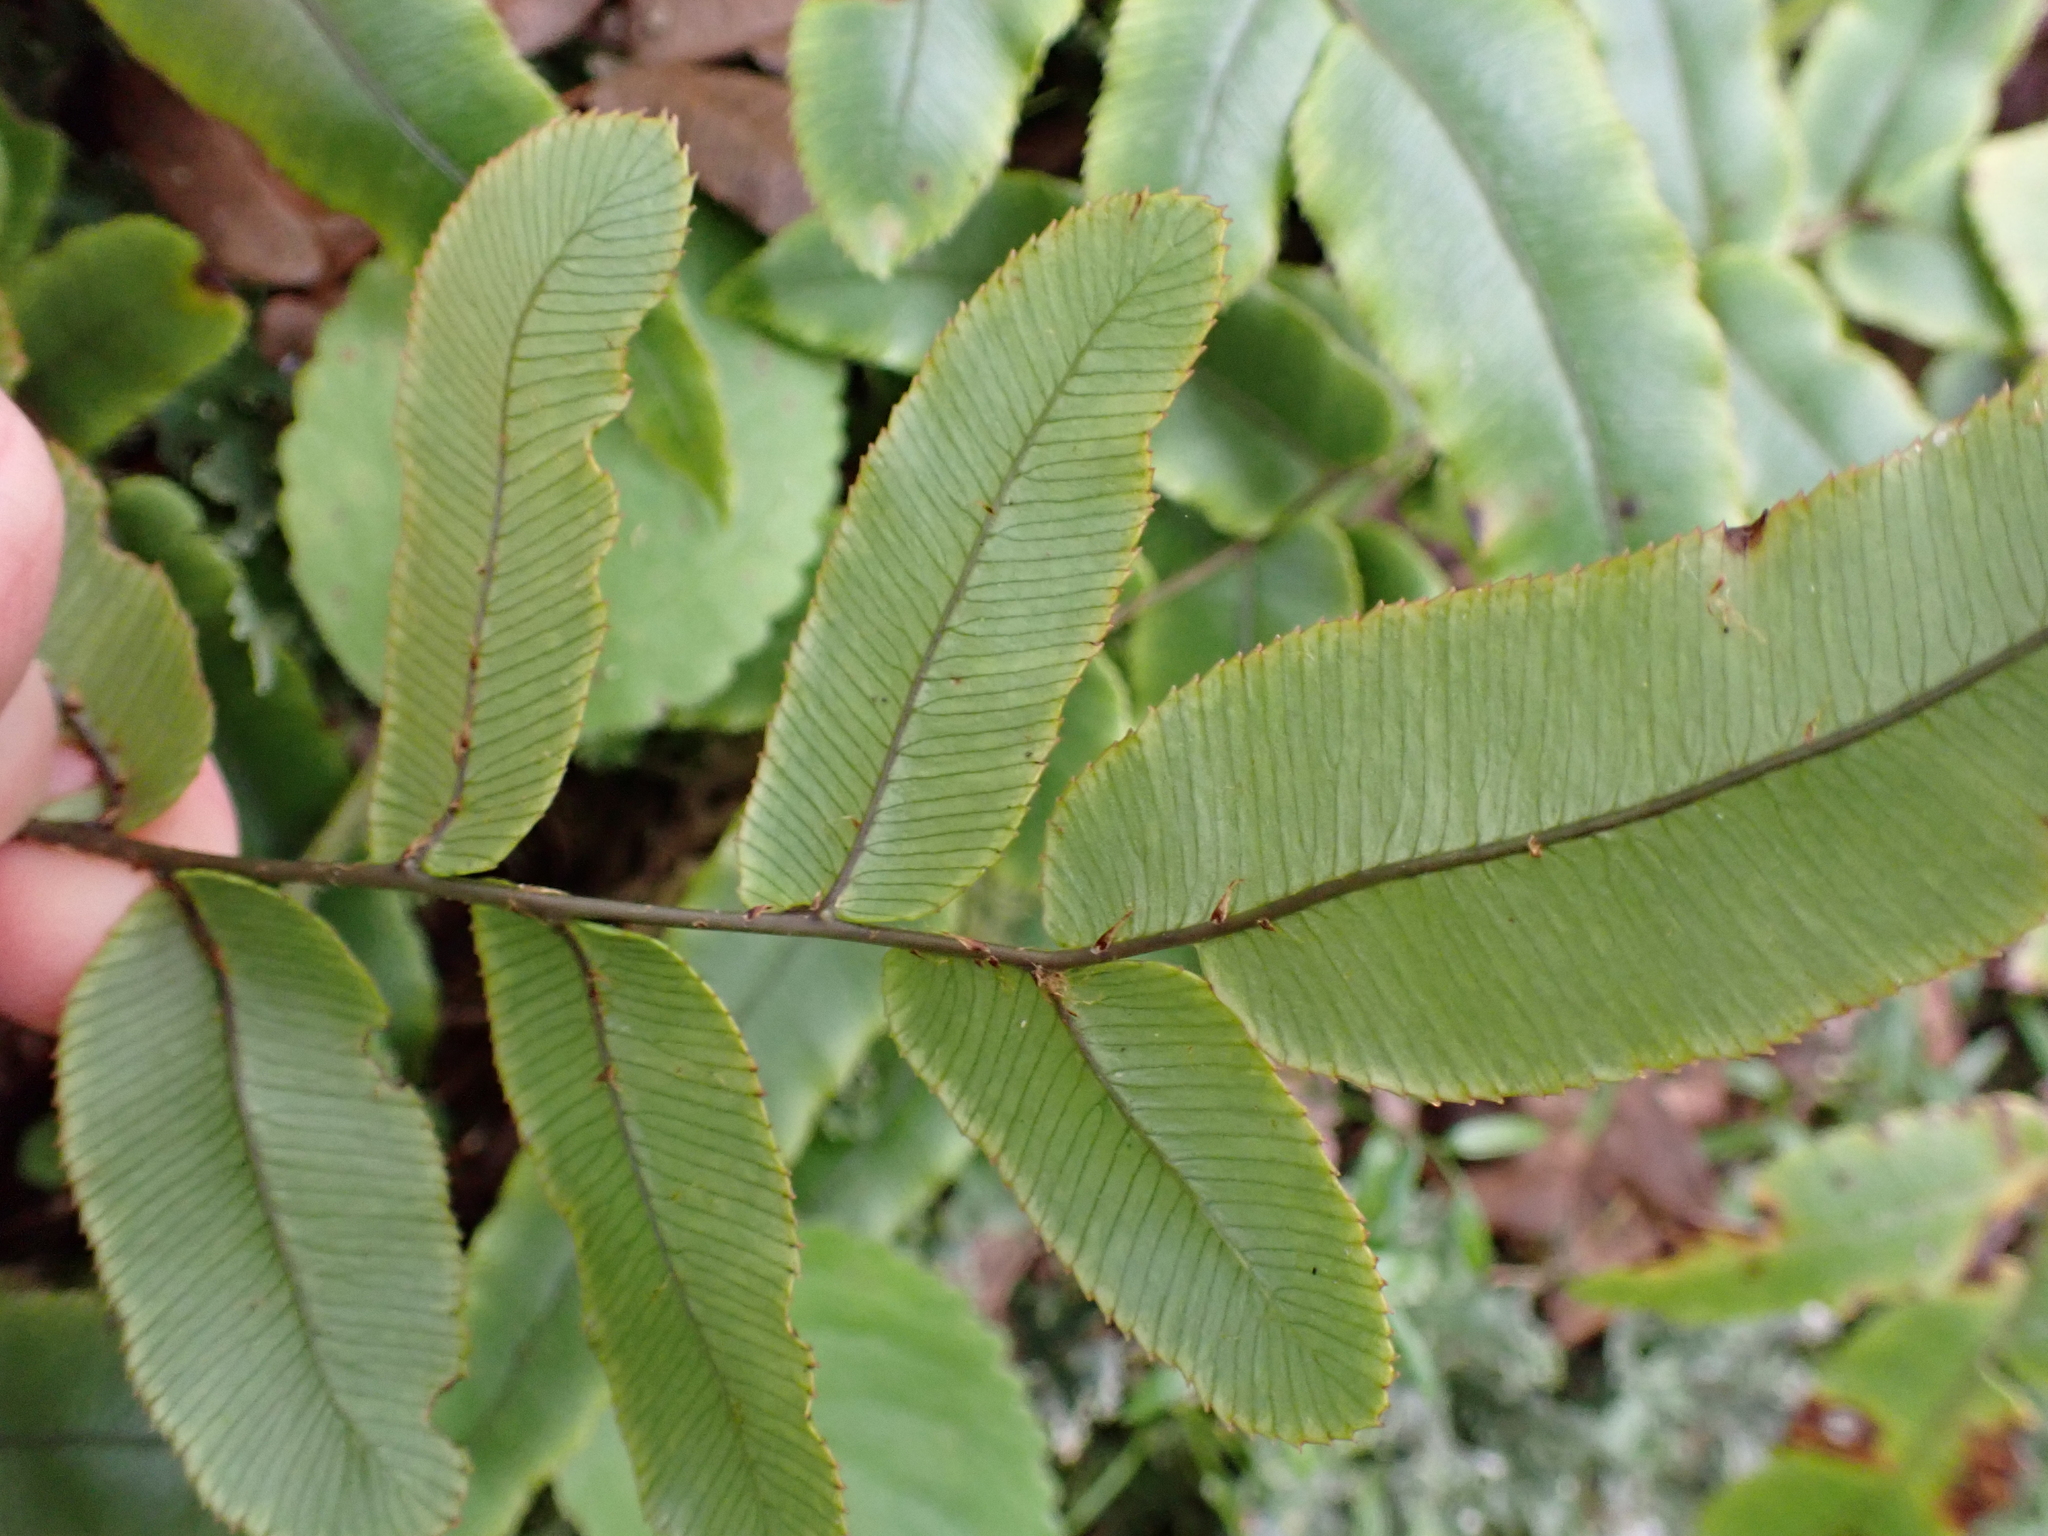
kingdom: Plantae
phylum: Tracheophyta
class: Polypodiopsida
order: Polypodiales
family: Blechnaceae
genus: Parablechnum
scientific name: Parablechnum procerum
